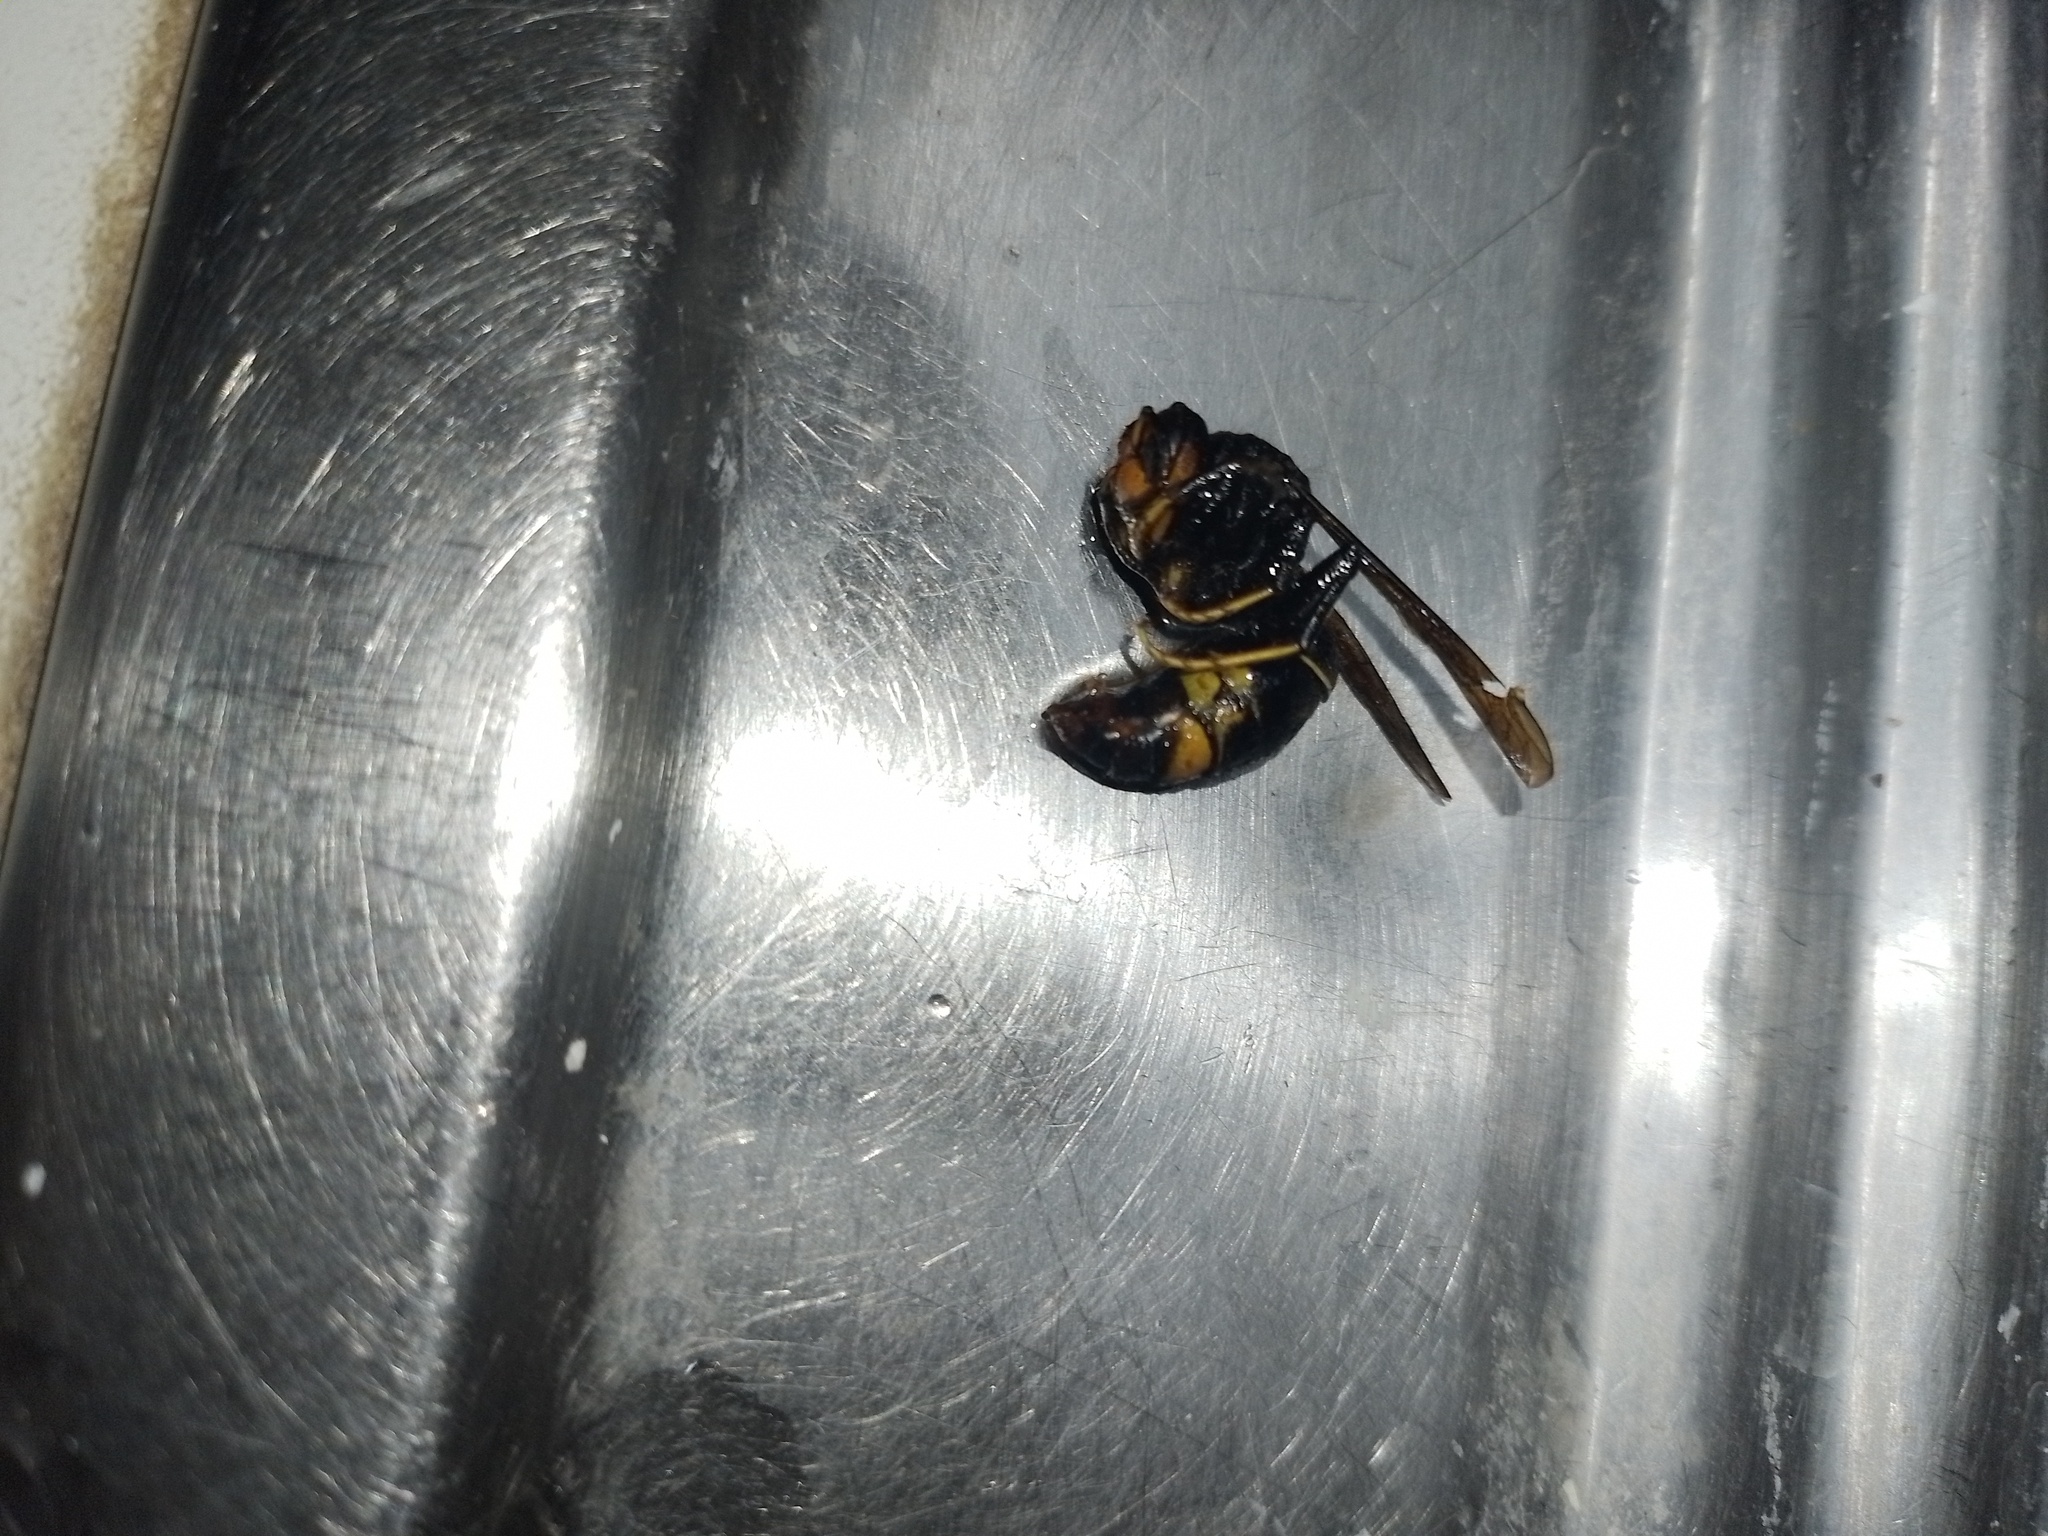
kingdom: Animalia
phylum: Arthropoda
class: Insecta
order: Hymenoptera
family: Vespidae
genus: Vespa
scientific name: Vespa velutina
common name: Asian hornet
